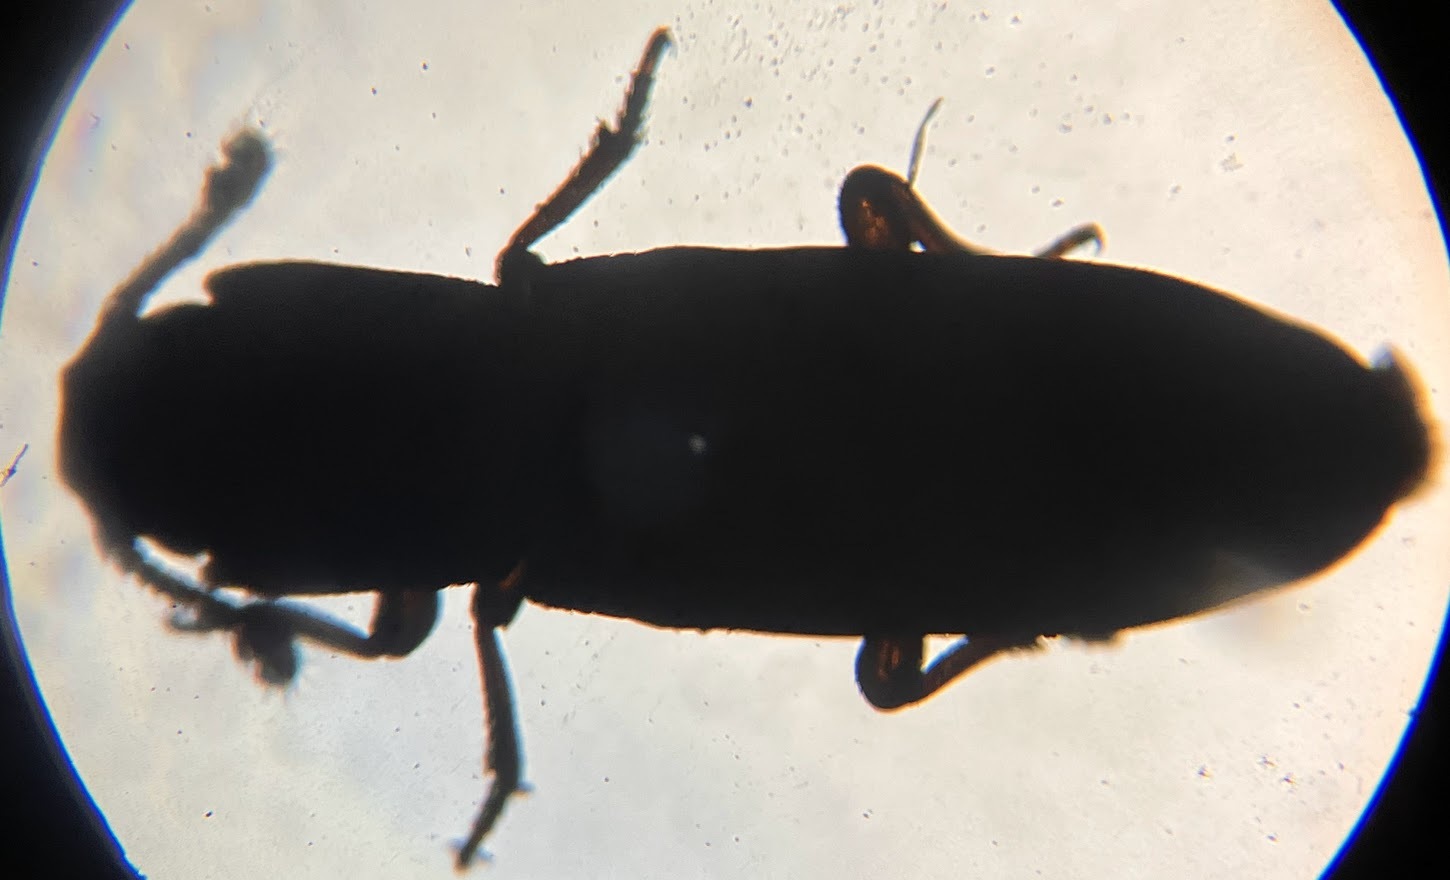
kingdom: Animalia
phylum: Arthropoda
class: Insecta
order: Coleoptera
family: Zopheridae
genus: Pycnomerus
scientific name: Pycnomerus reflexus
